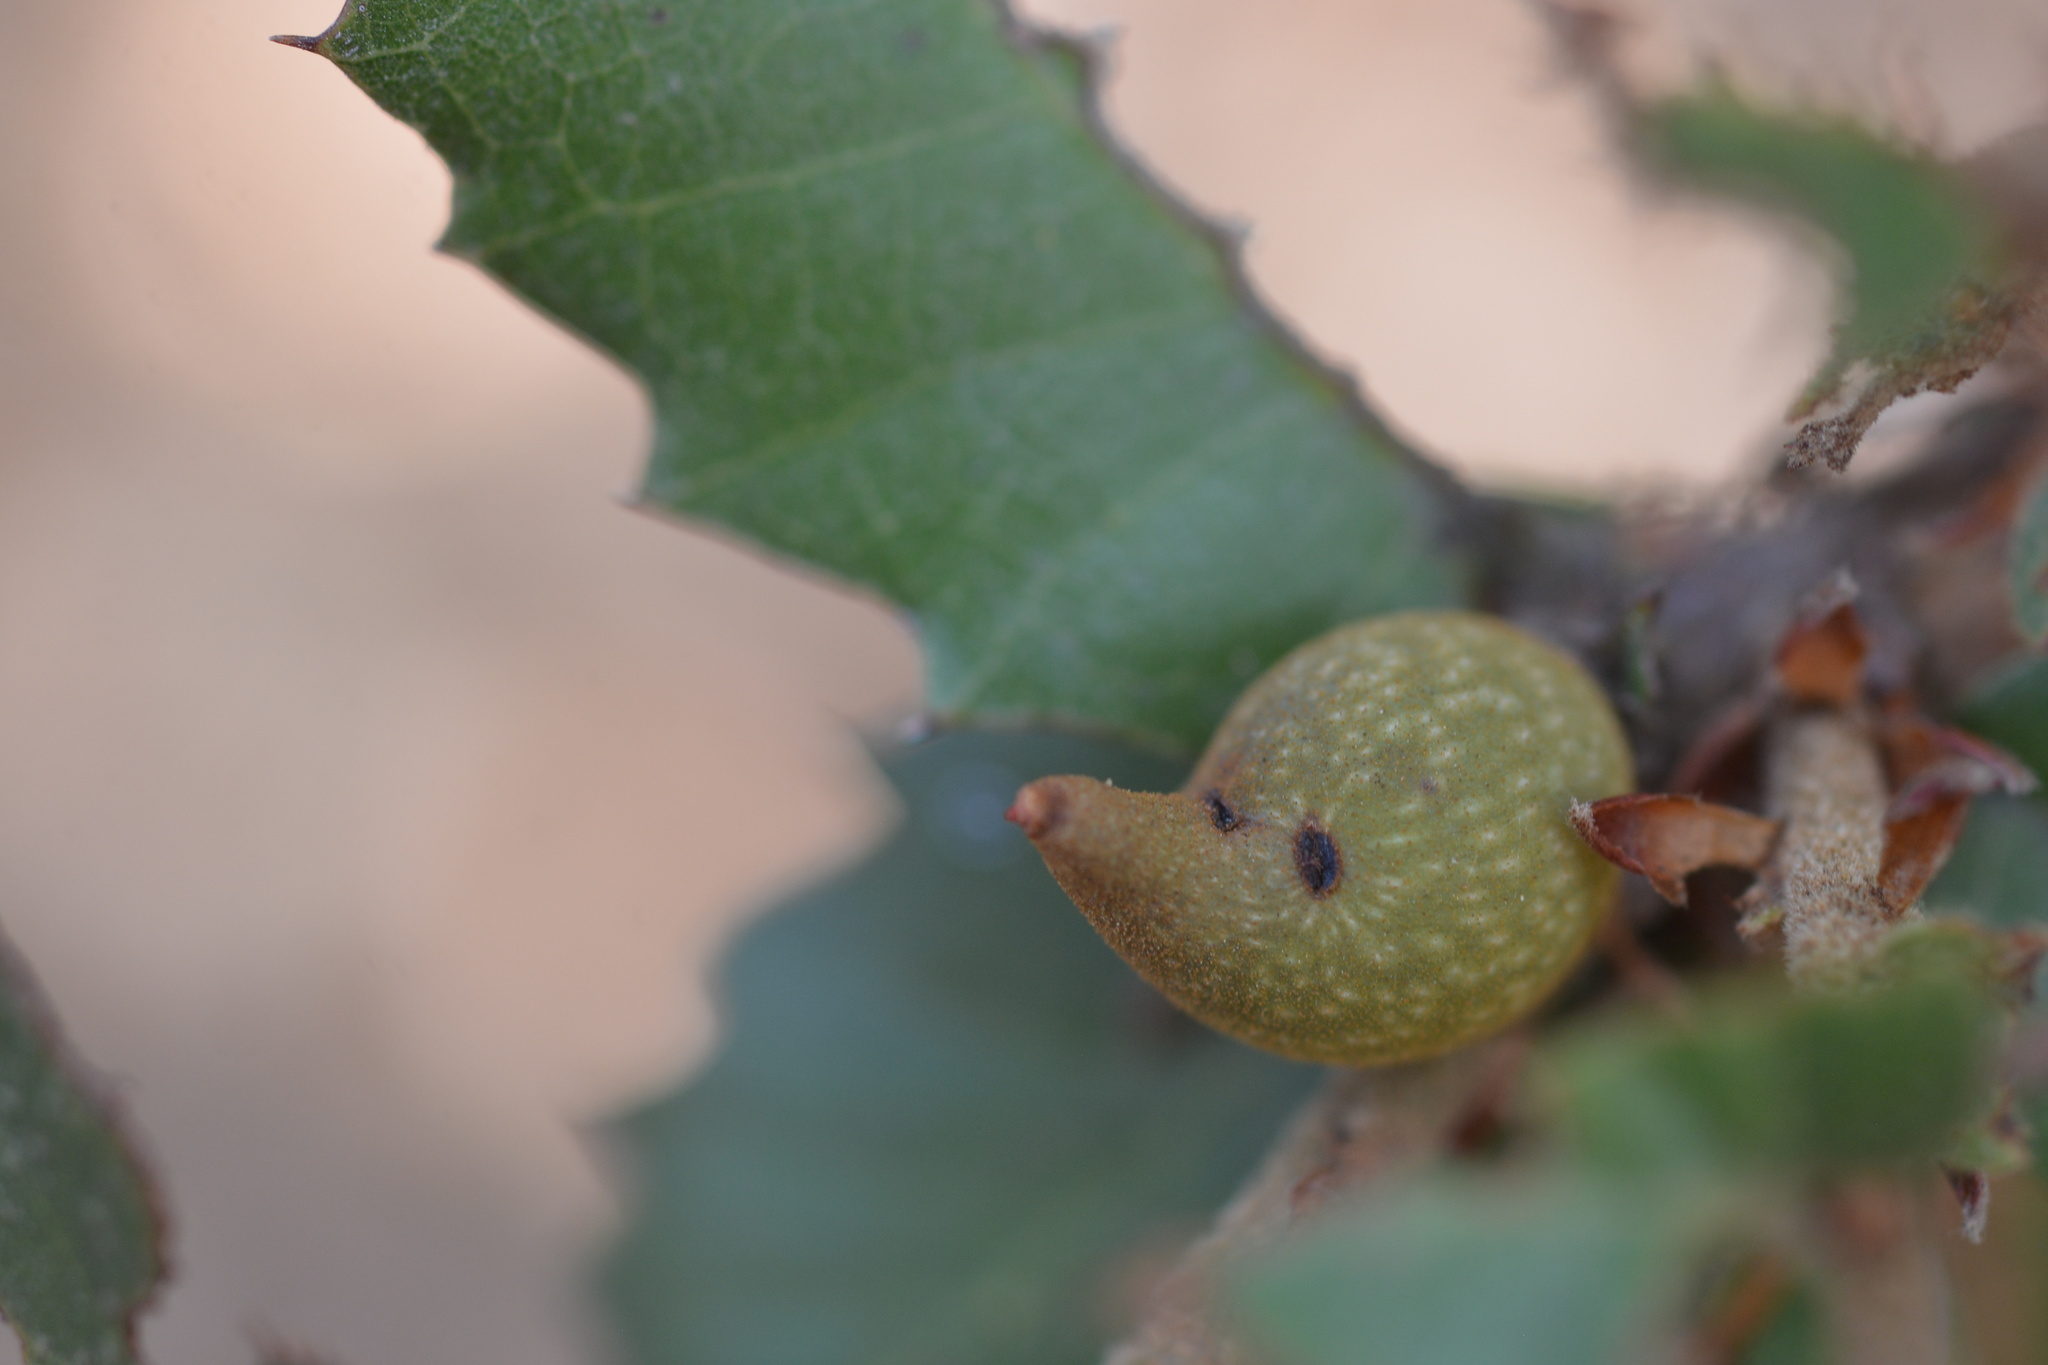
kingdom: Animalia
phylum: Arthropoda
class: Insecta
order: Hymenoptera
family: Cynipidae
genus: Heteroecus
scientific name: Heteroecus pacificus
